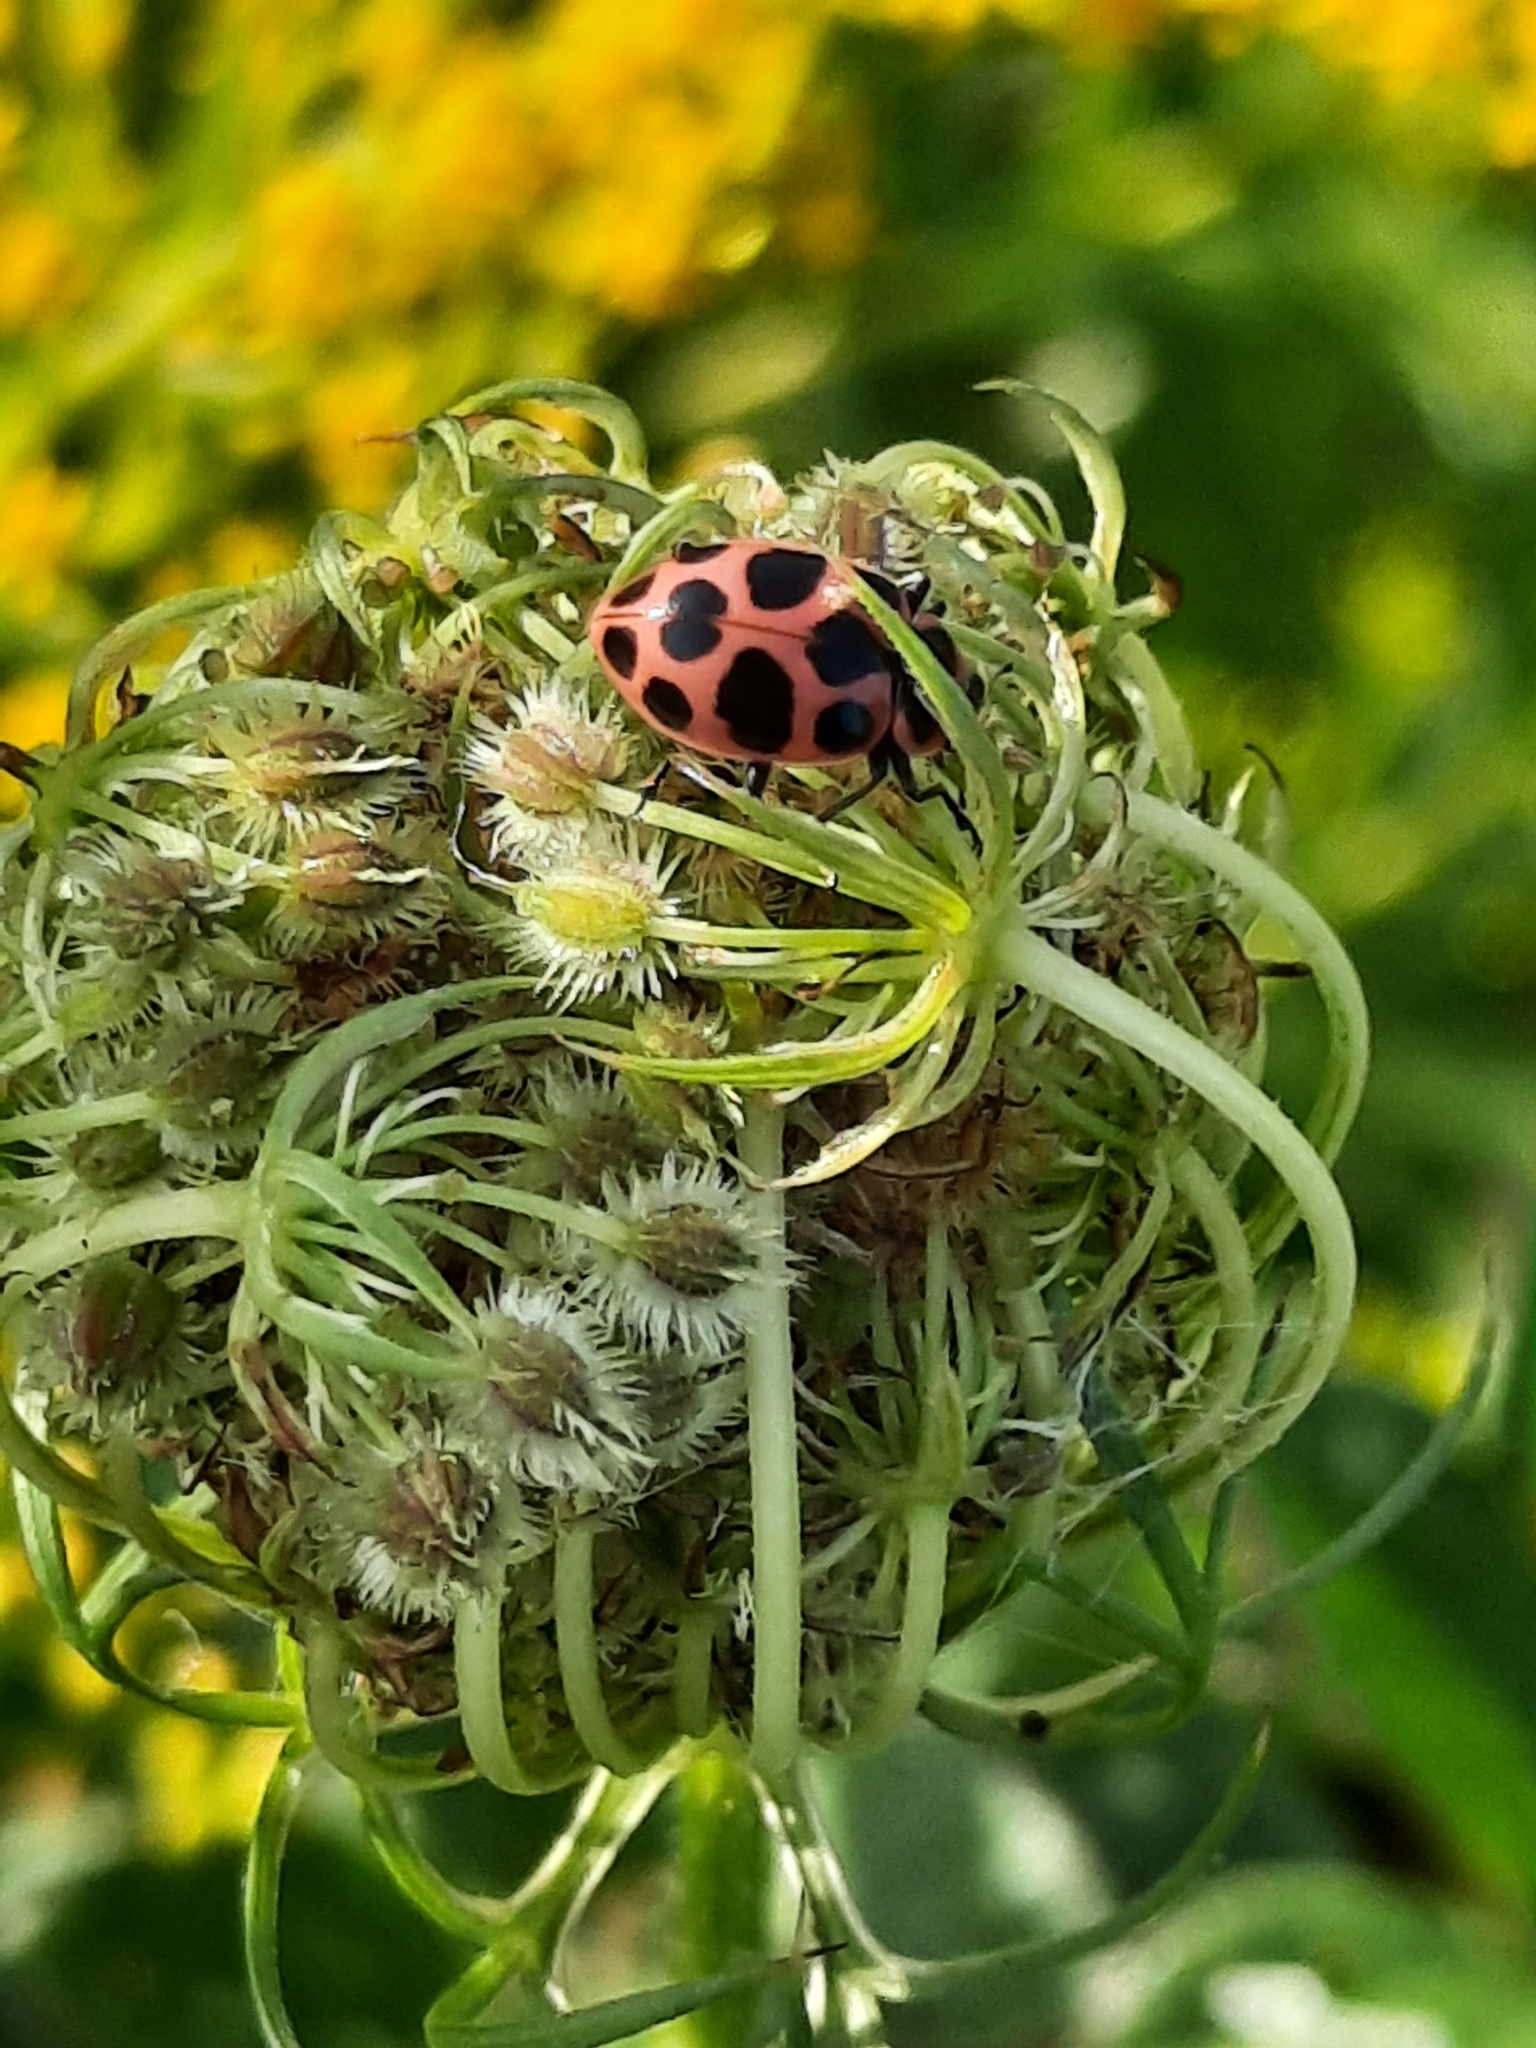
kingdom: Animalia
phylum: Arthropoda
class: Insecta
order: Coleoptera
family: Coccinellidae
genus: Coleomegilla
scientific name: Coleomegilla maculata
